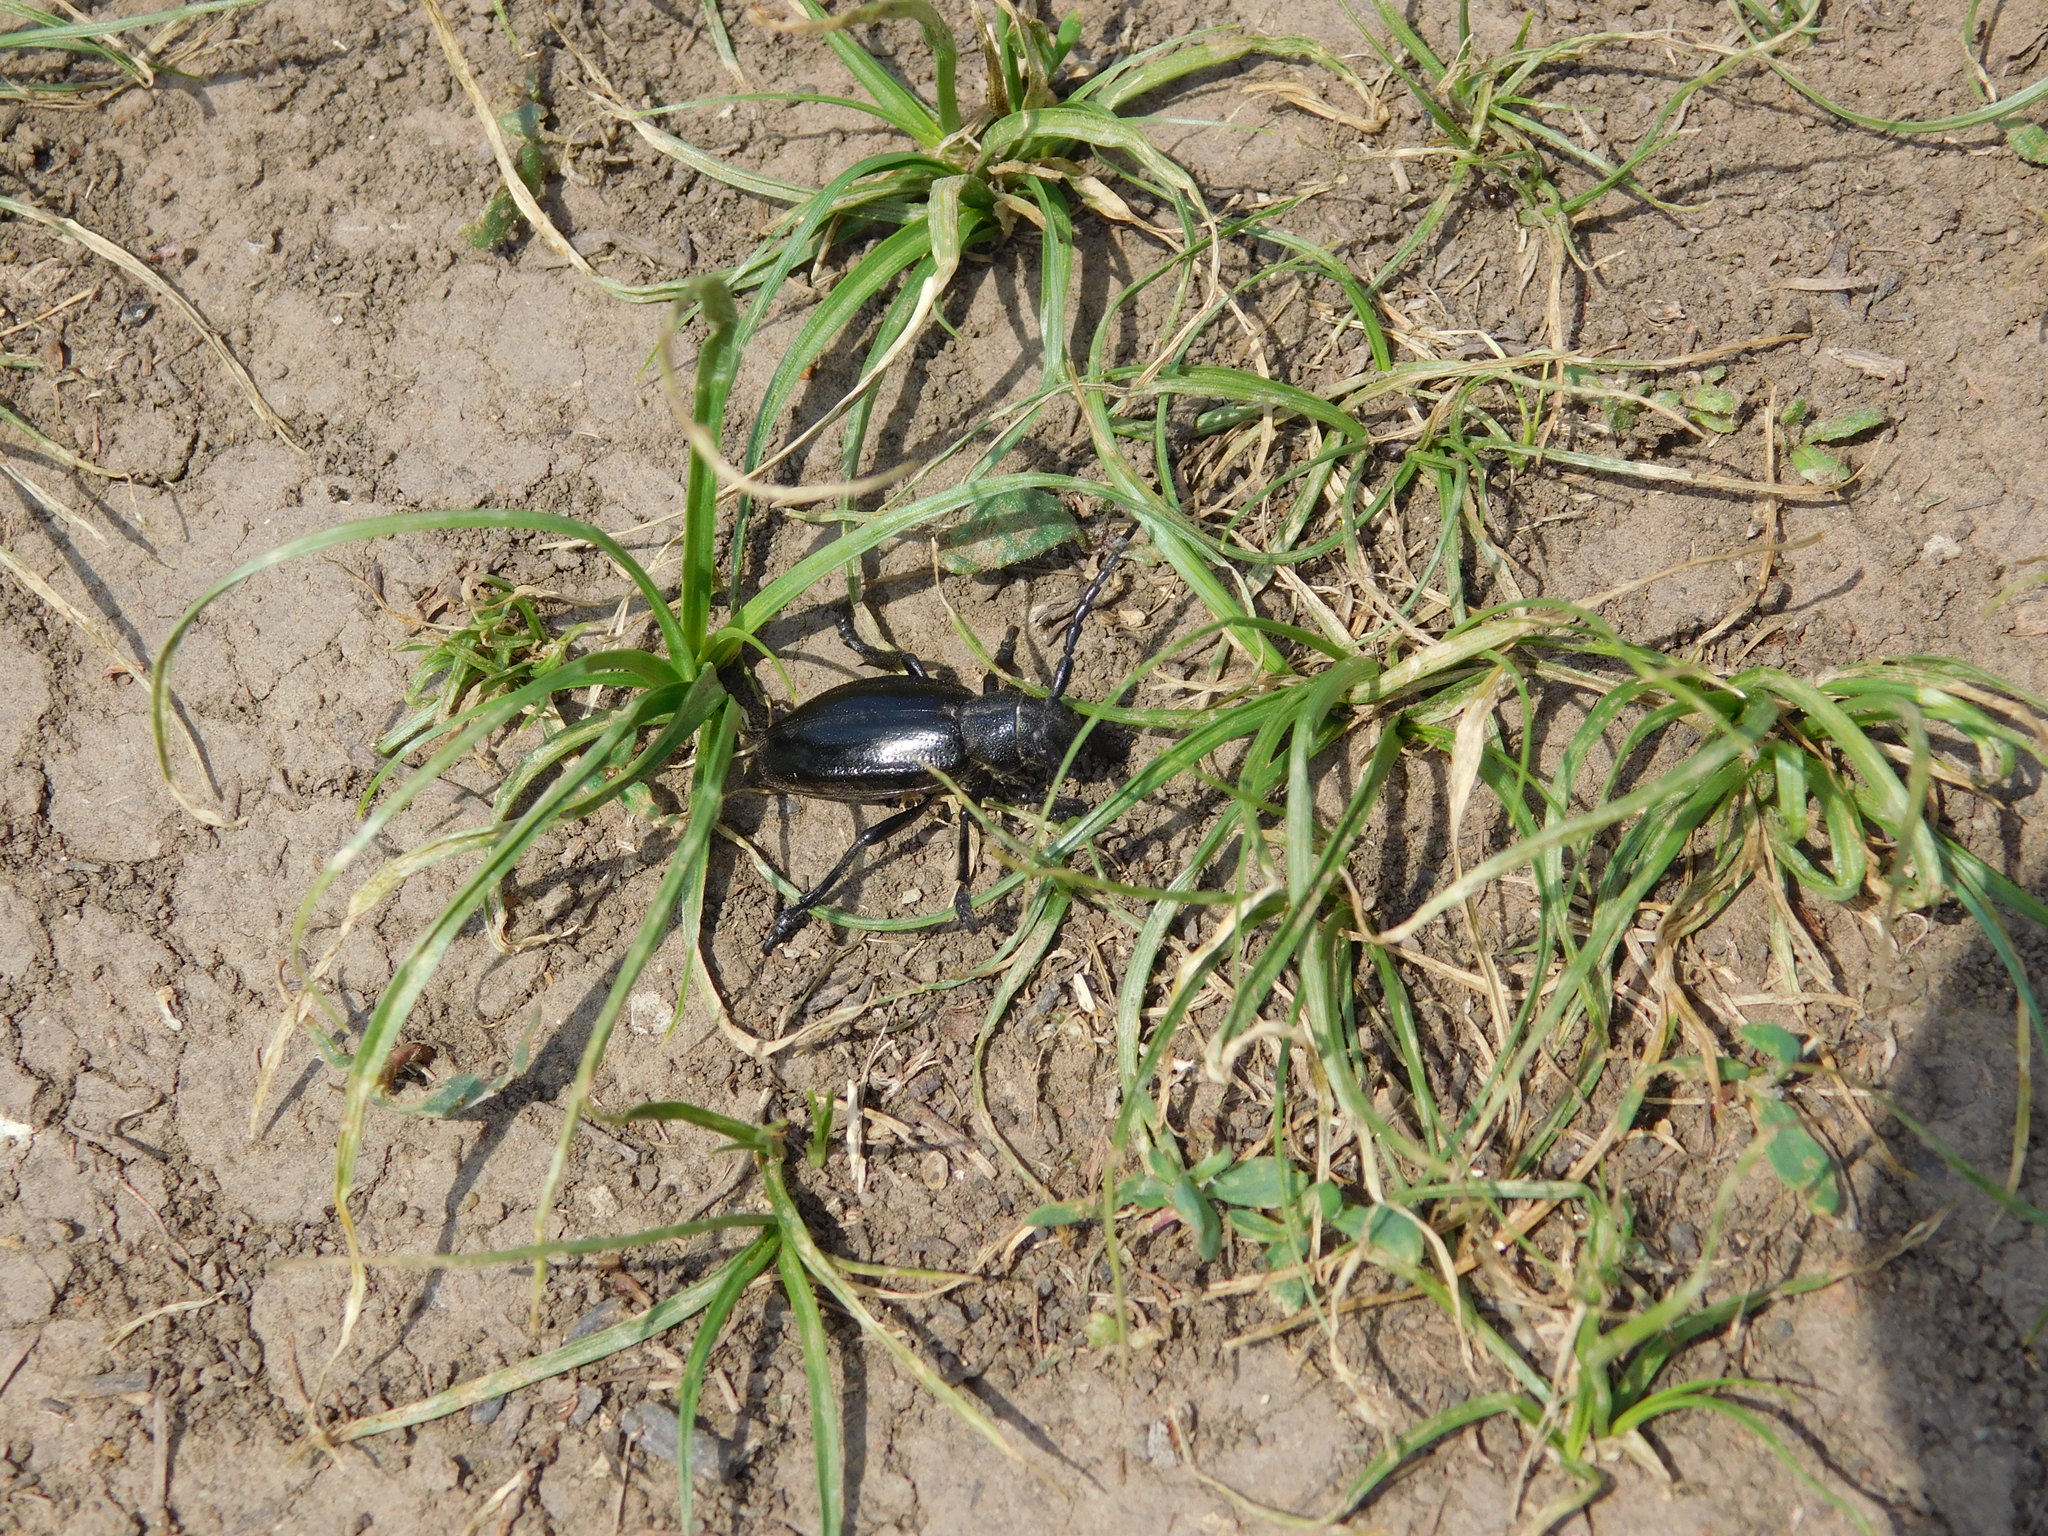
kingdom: Animalia
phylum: Arthropoda
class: Insecta
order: Coleoptera
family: Cerambycidae
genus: Dorcadion
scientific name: Dorcadion carinatum
